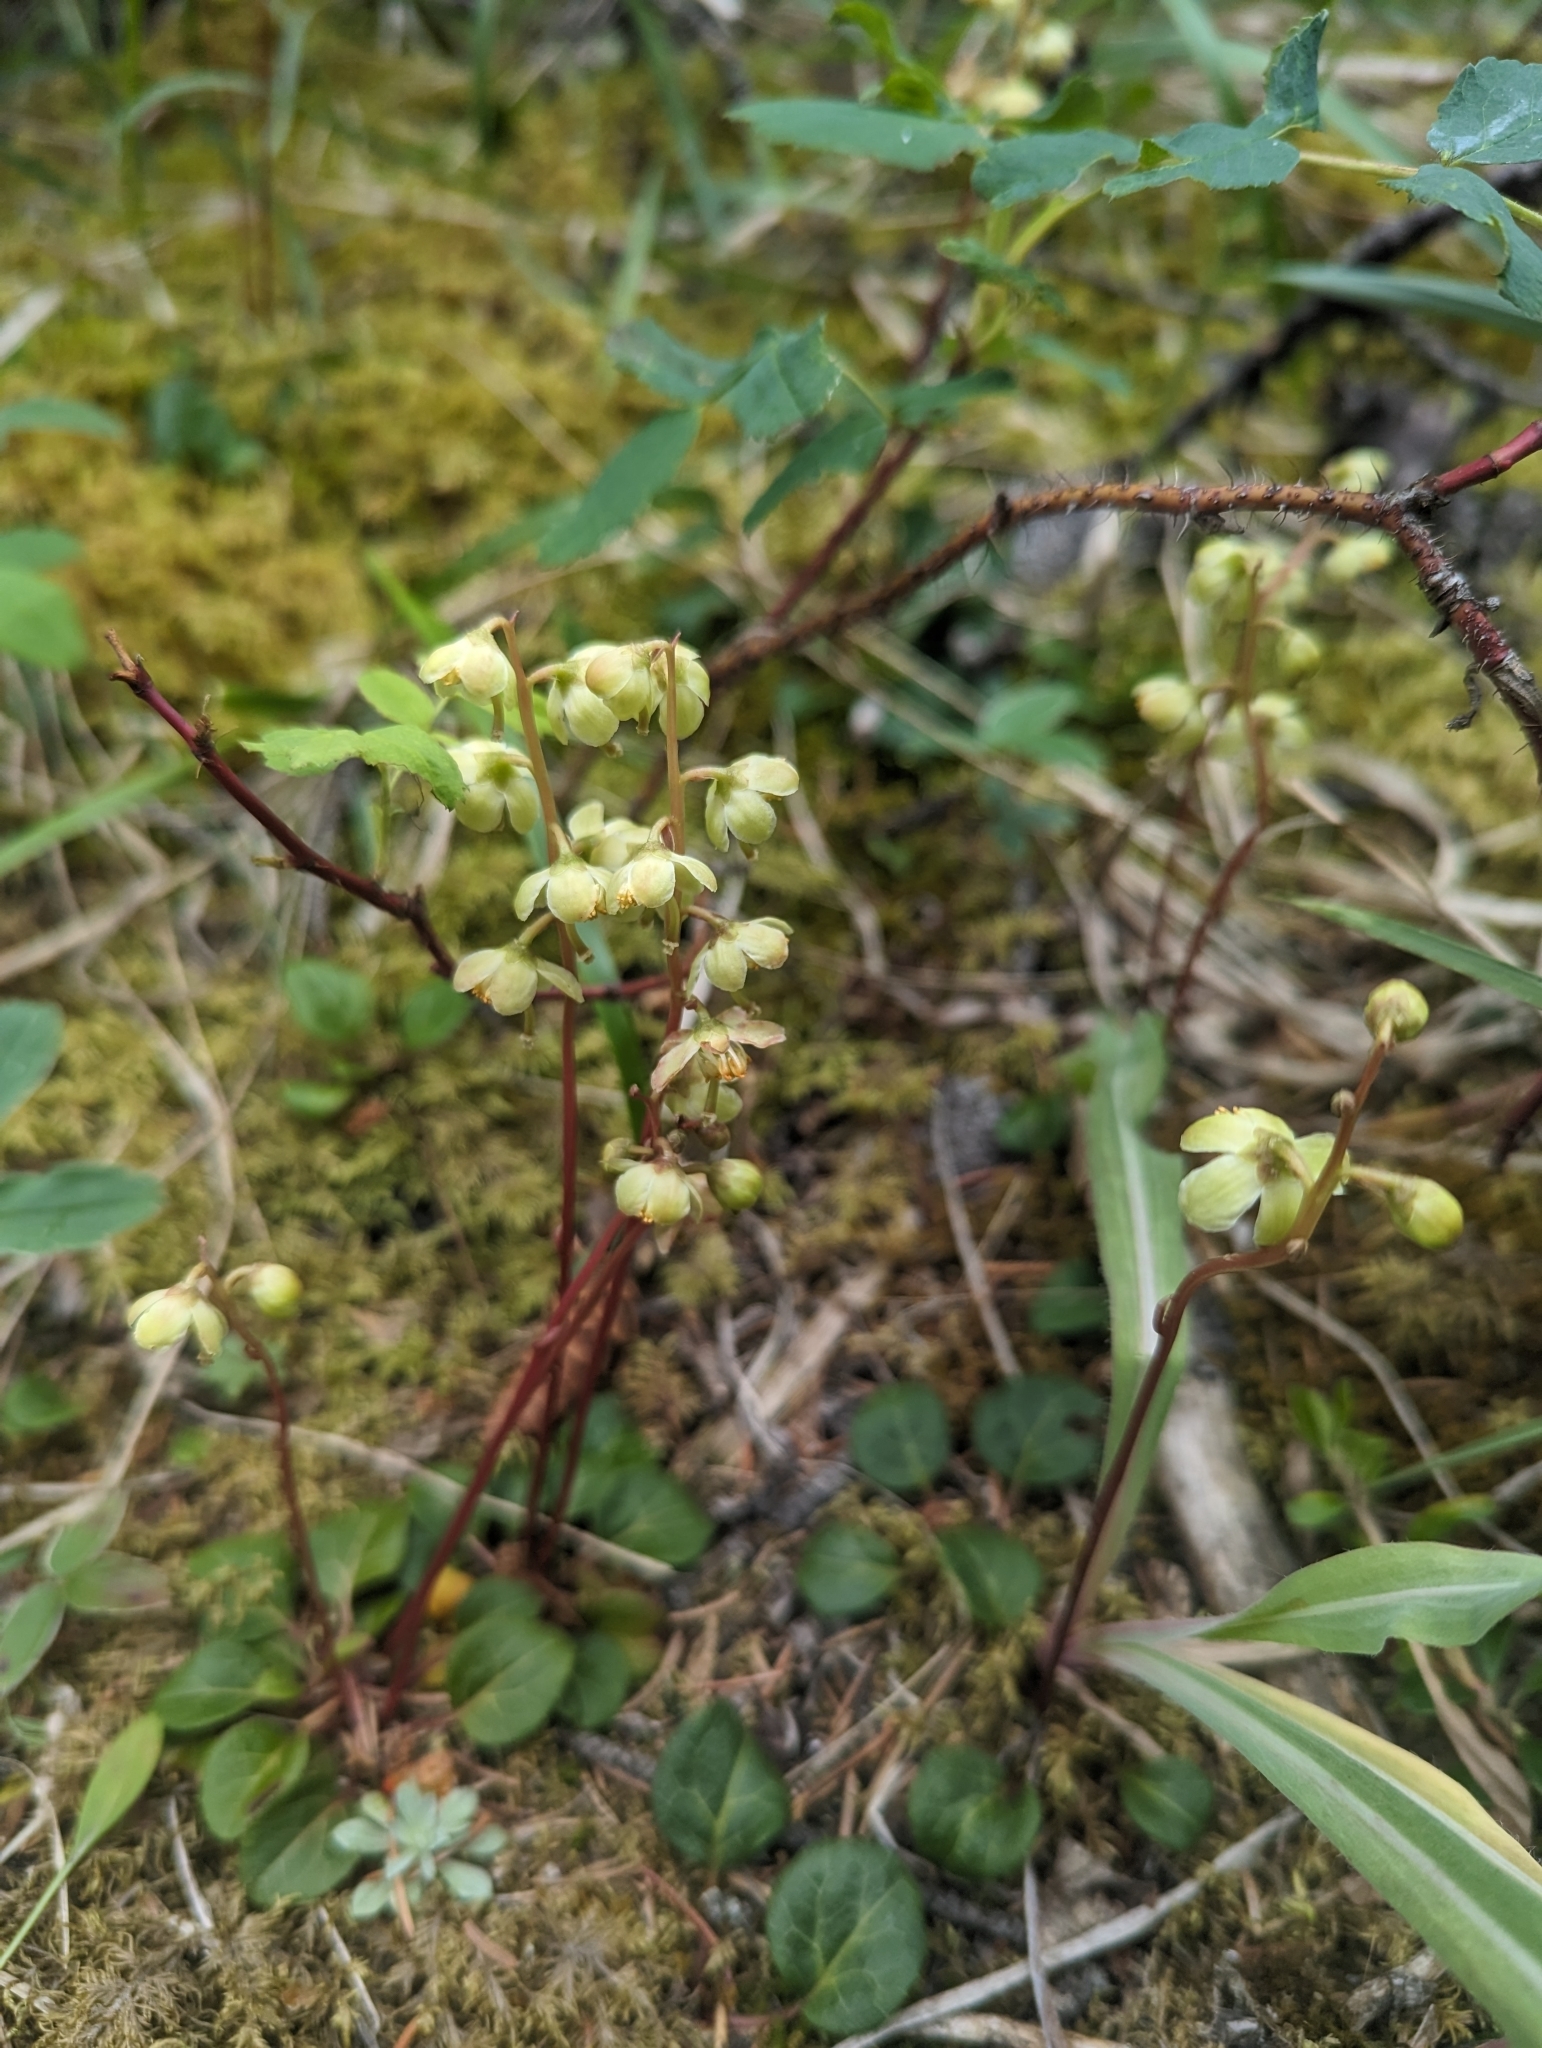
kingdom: Plantae
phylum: Tracheophyta
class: Magnoliopsida
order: Ericales
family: Ericaceae
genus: Pyrola
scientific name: Pyrola chlorantha
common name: Green wintergreen
